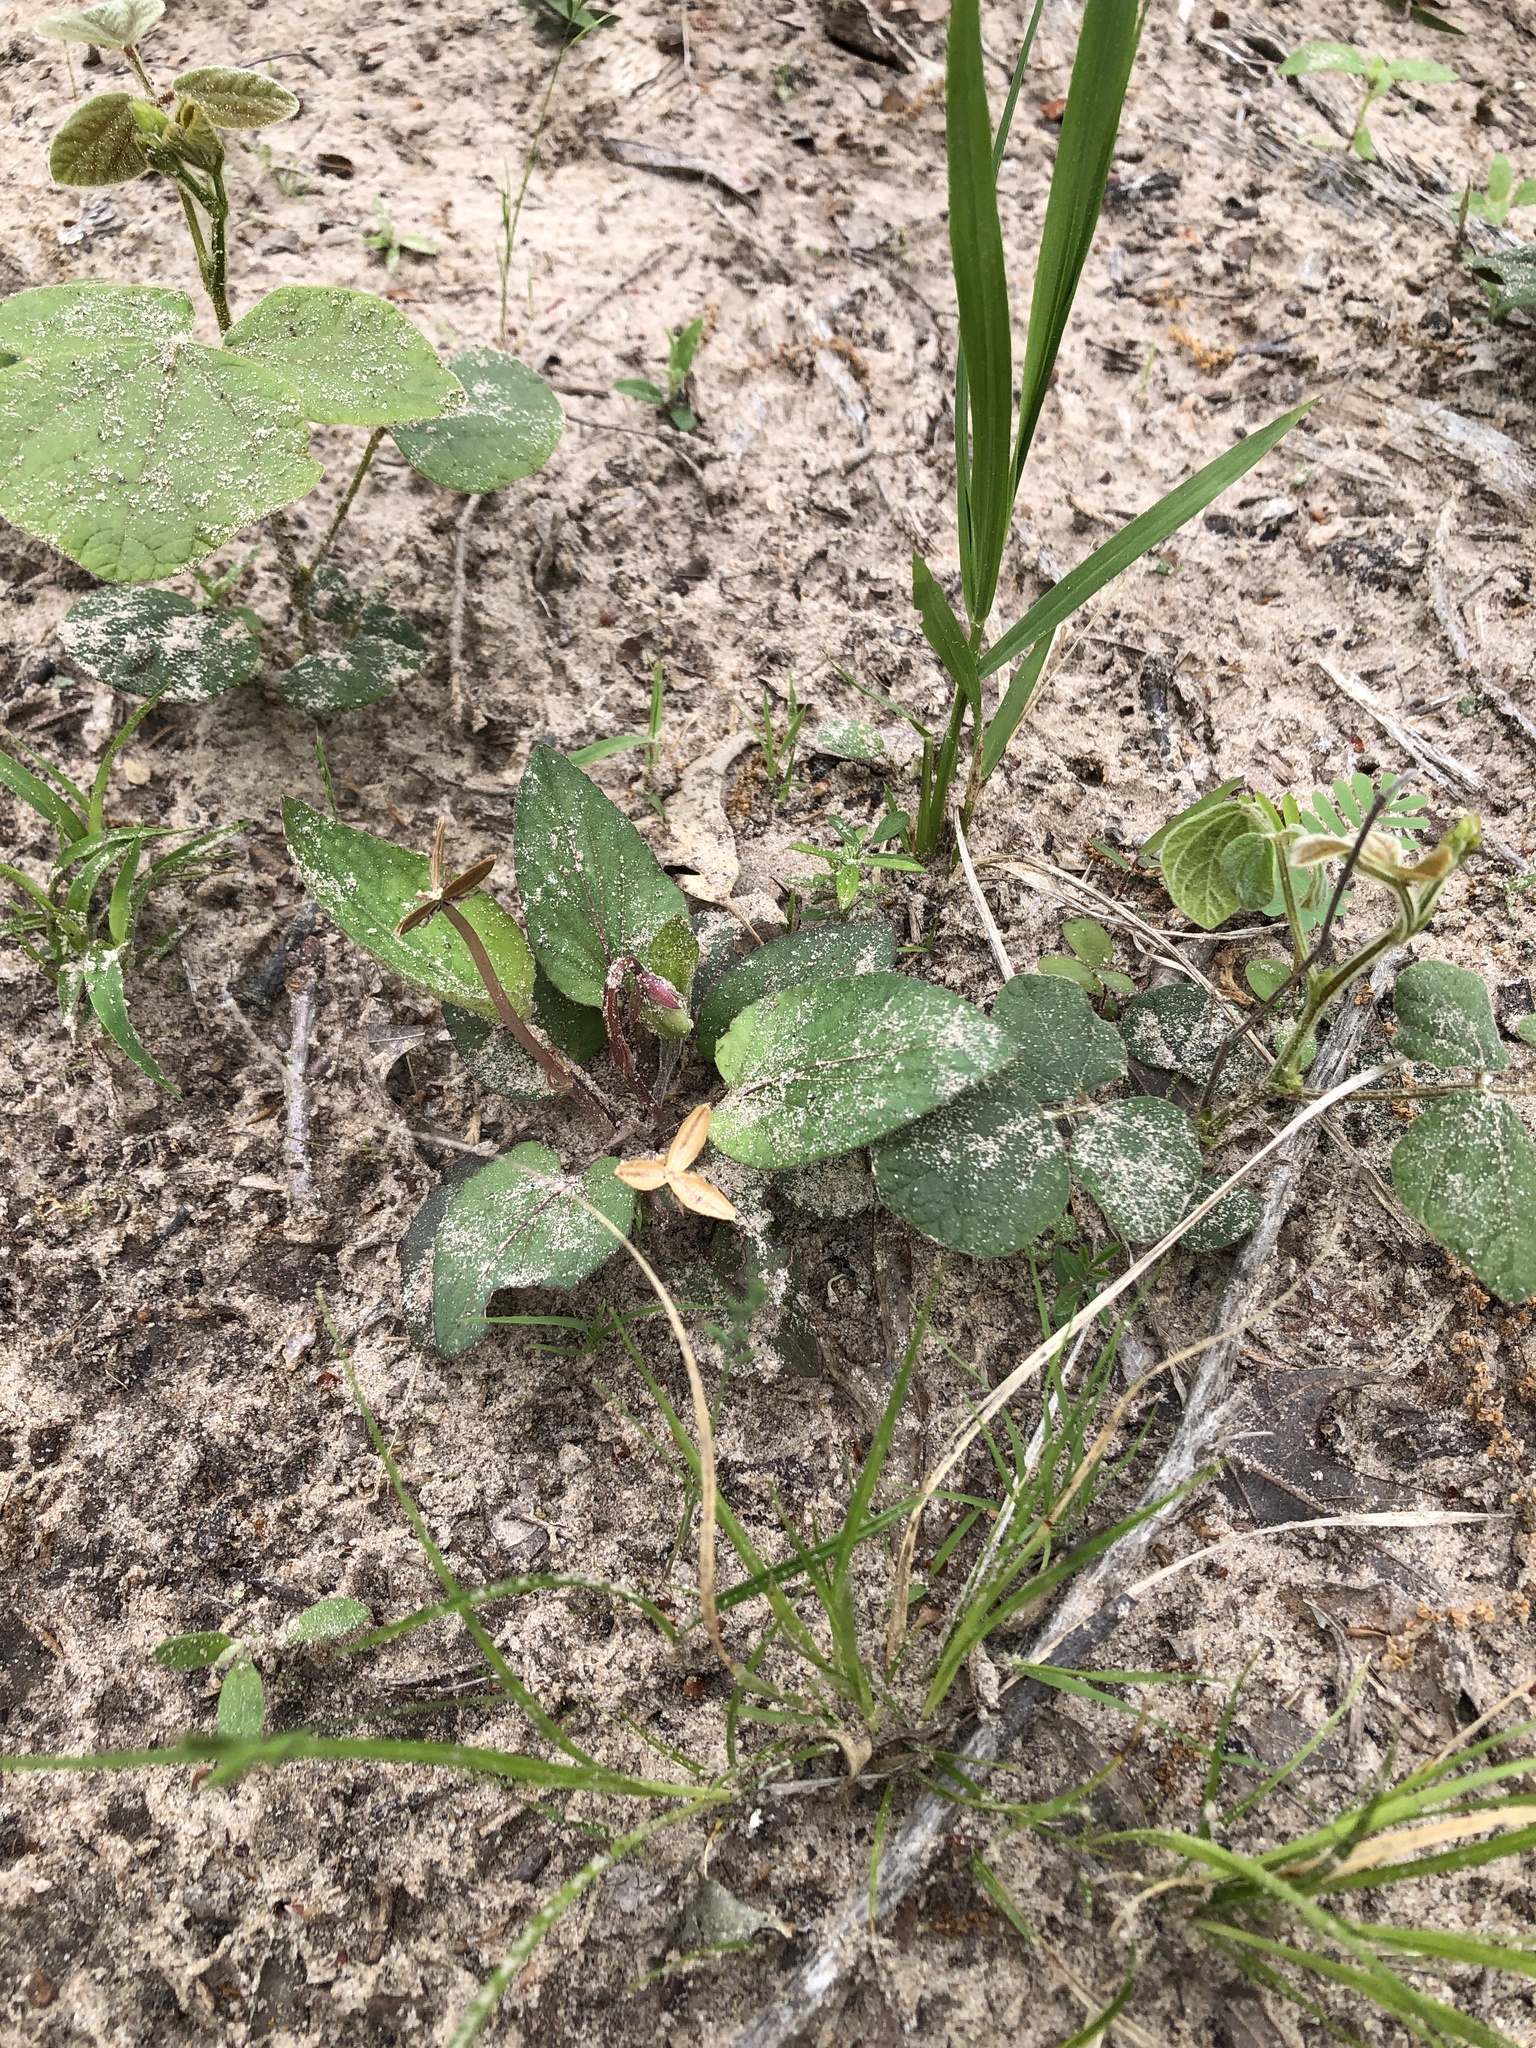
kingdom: Plantae
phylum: Tracheophyta
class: Magnoliopsida
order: Malpighiales
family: Violaceae
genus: Viola
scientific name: Viola villosa
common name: Carolina violet
